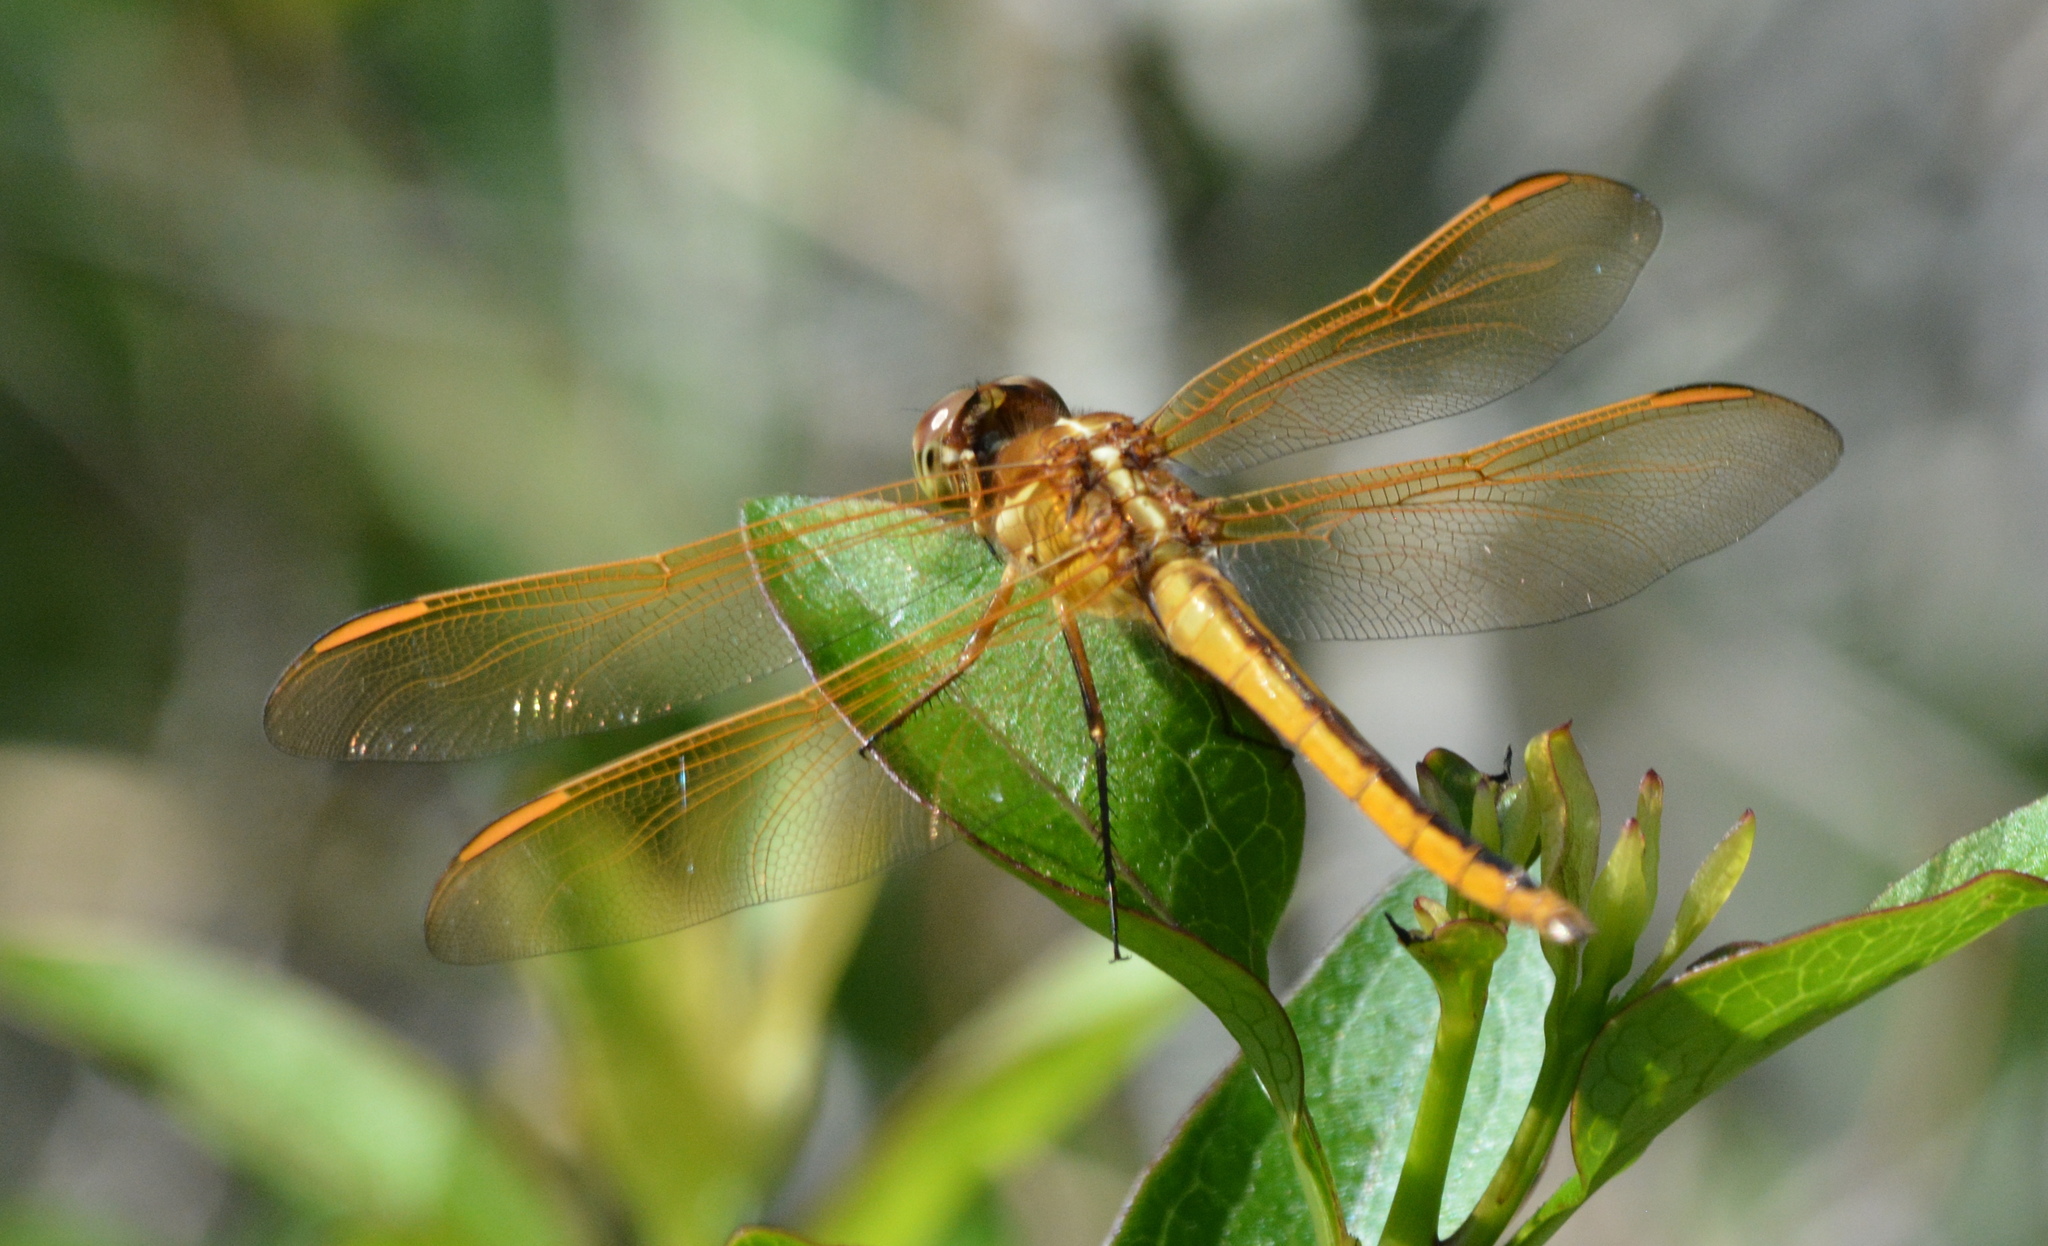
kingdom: Animalia
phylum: Arthropoda
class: Insecta
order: Odonata
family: Libellulidae
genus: Libellula
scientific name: Libellula auripennis
